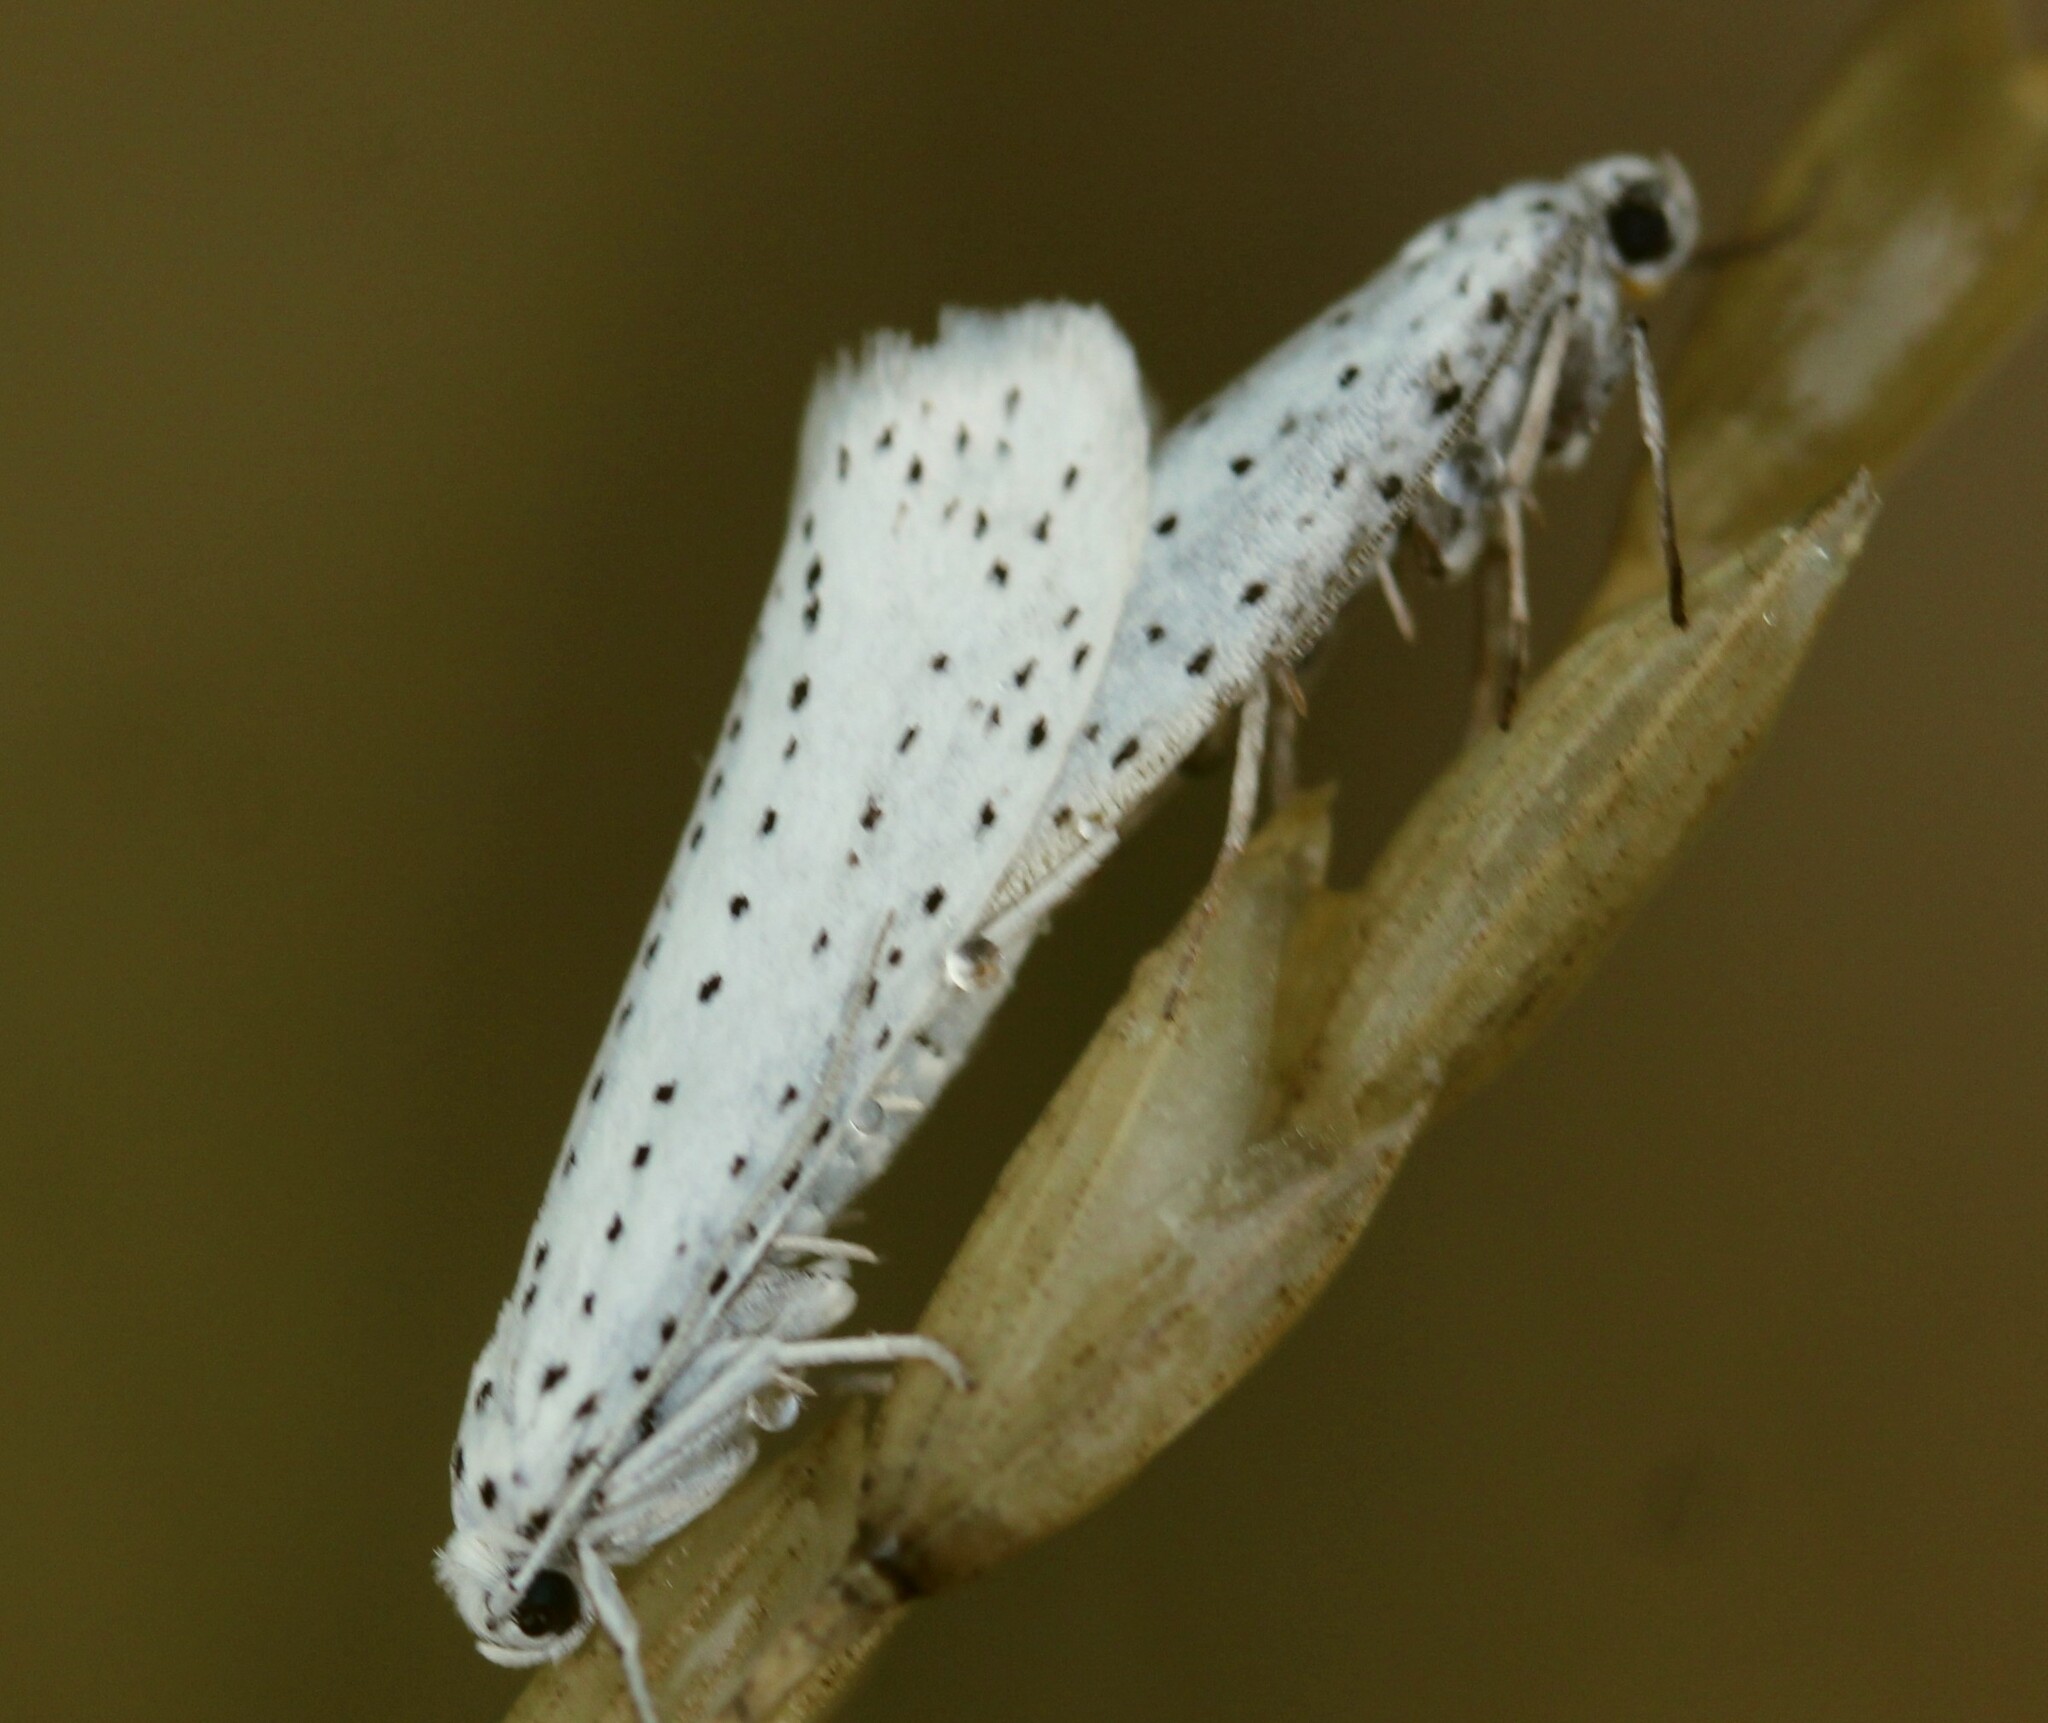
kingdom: Animalia
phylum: Arthropoda
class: Insecta
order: Lepidoptera
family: Yponomeutidae
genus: Yponomeuta
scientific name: Yponomeuta evonymella
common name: Bird-cherry ermine
